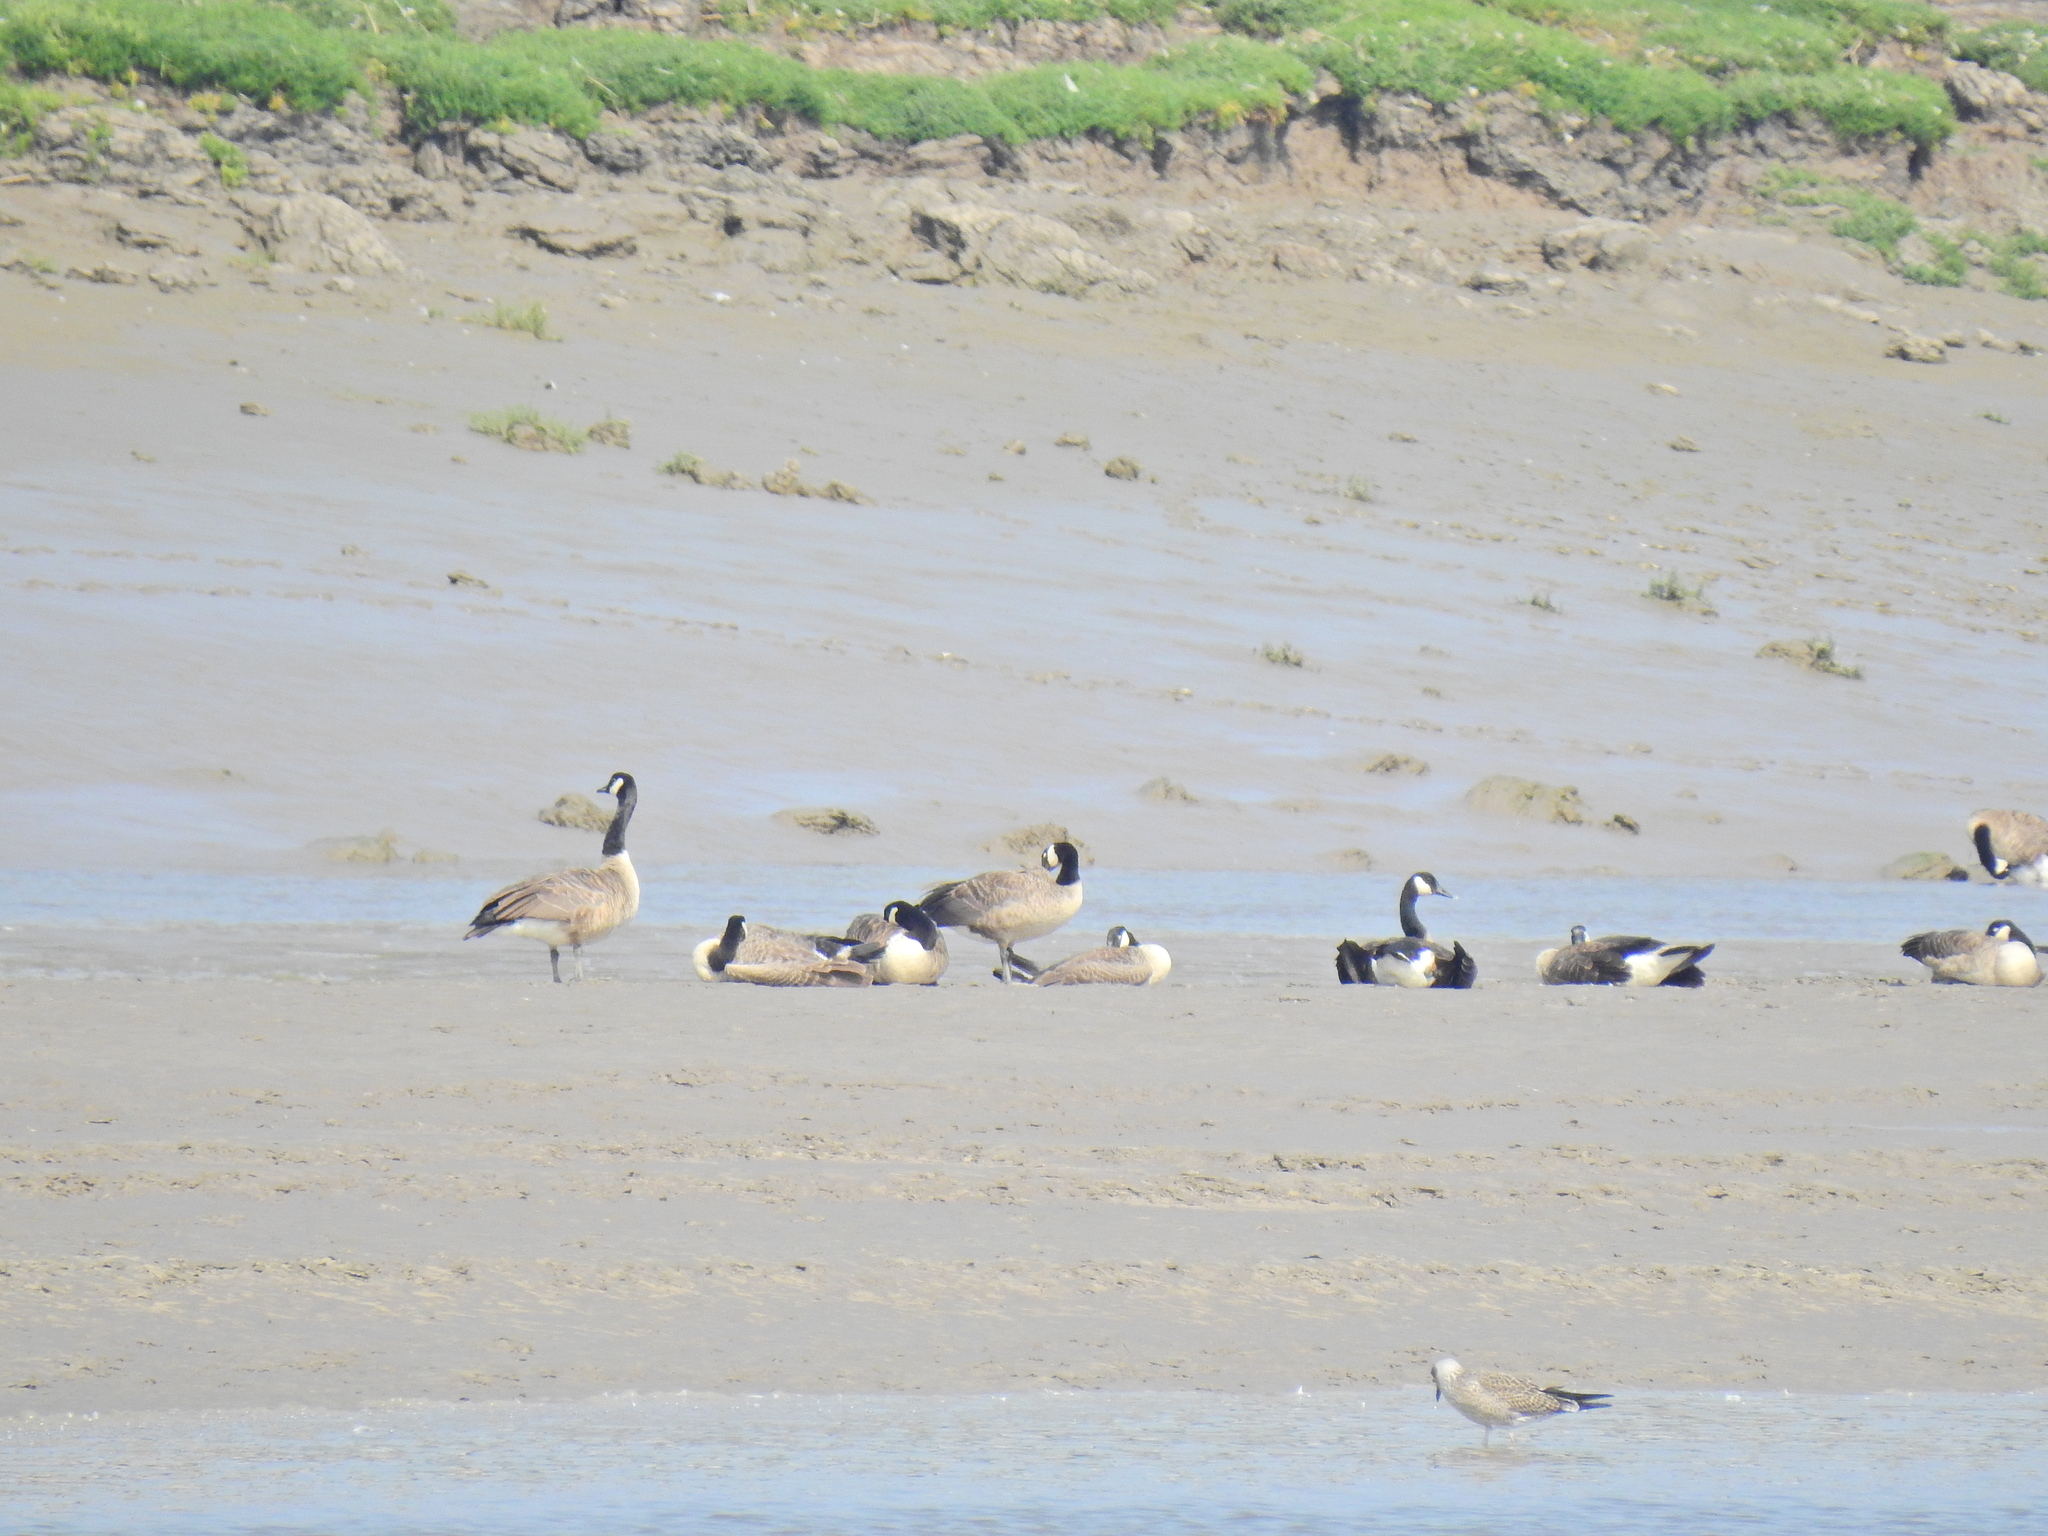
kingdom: Animalia
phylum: Chordata
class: Aves
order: Anseriformes
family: Anatidae
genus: Branta
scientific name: Branta canadensis
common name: Canada goose
